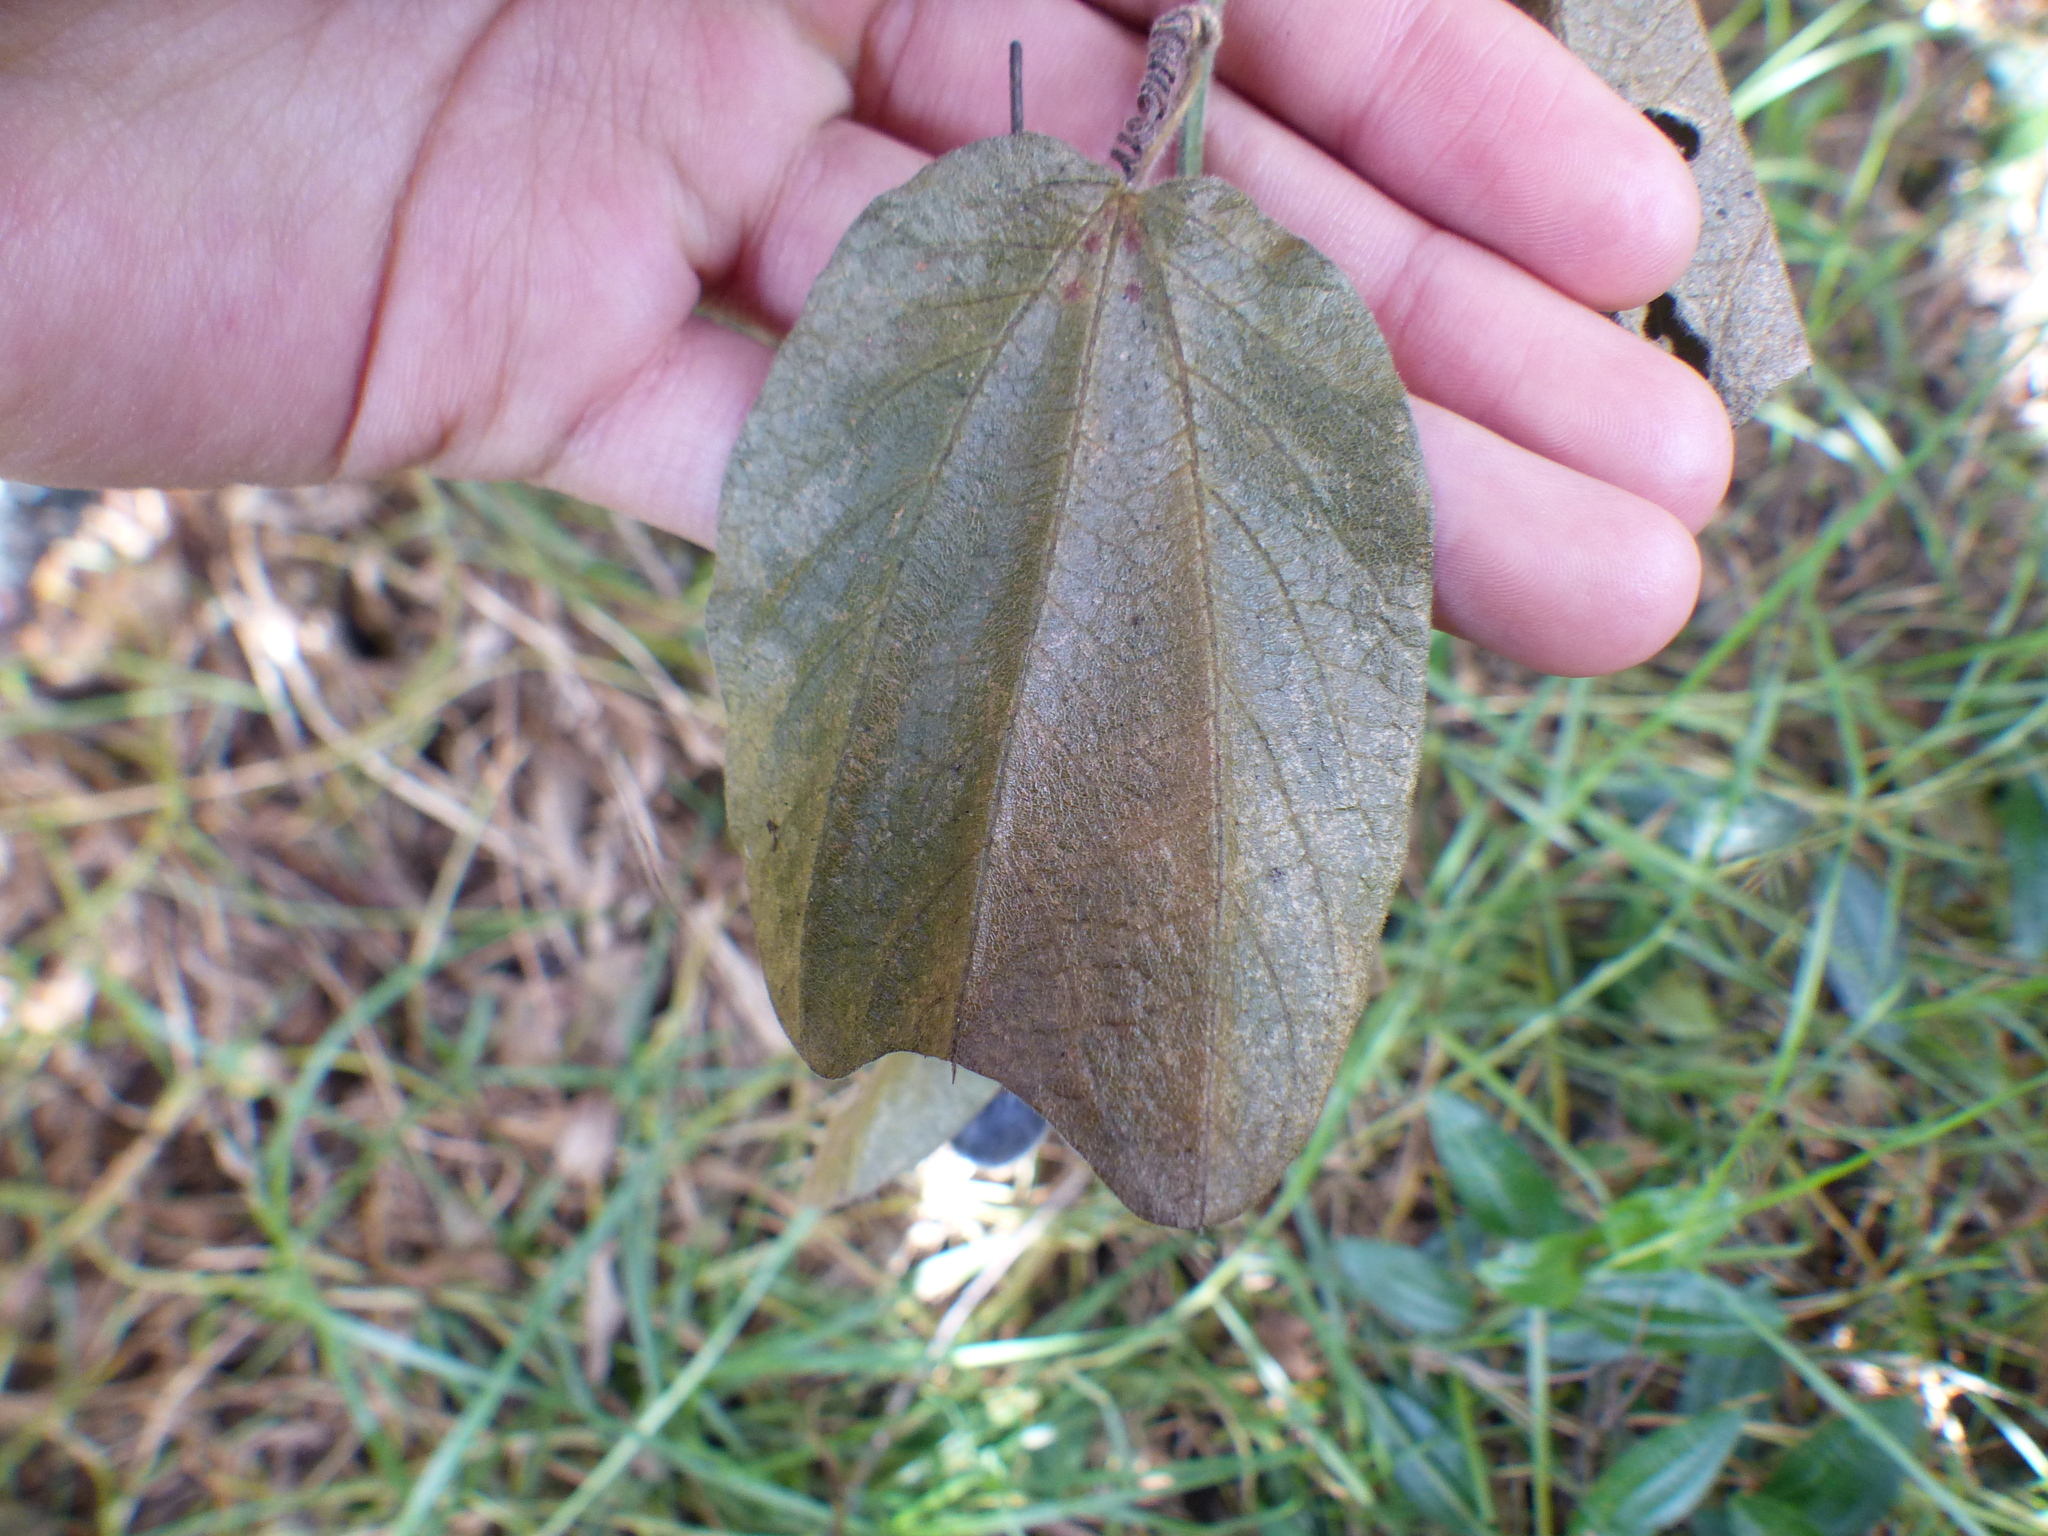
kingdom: Plantae
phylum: Tracheophyta
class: Magnoliopsida
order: Malpighiales
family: Passifloraceae
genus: Passiflora
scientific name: Passiflora bogotensis
